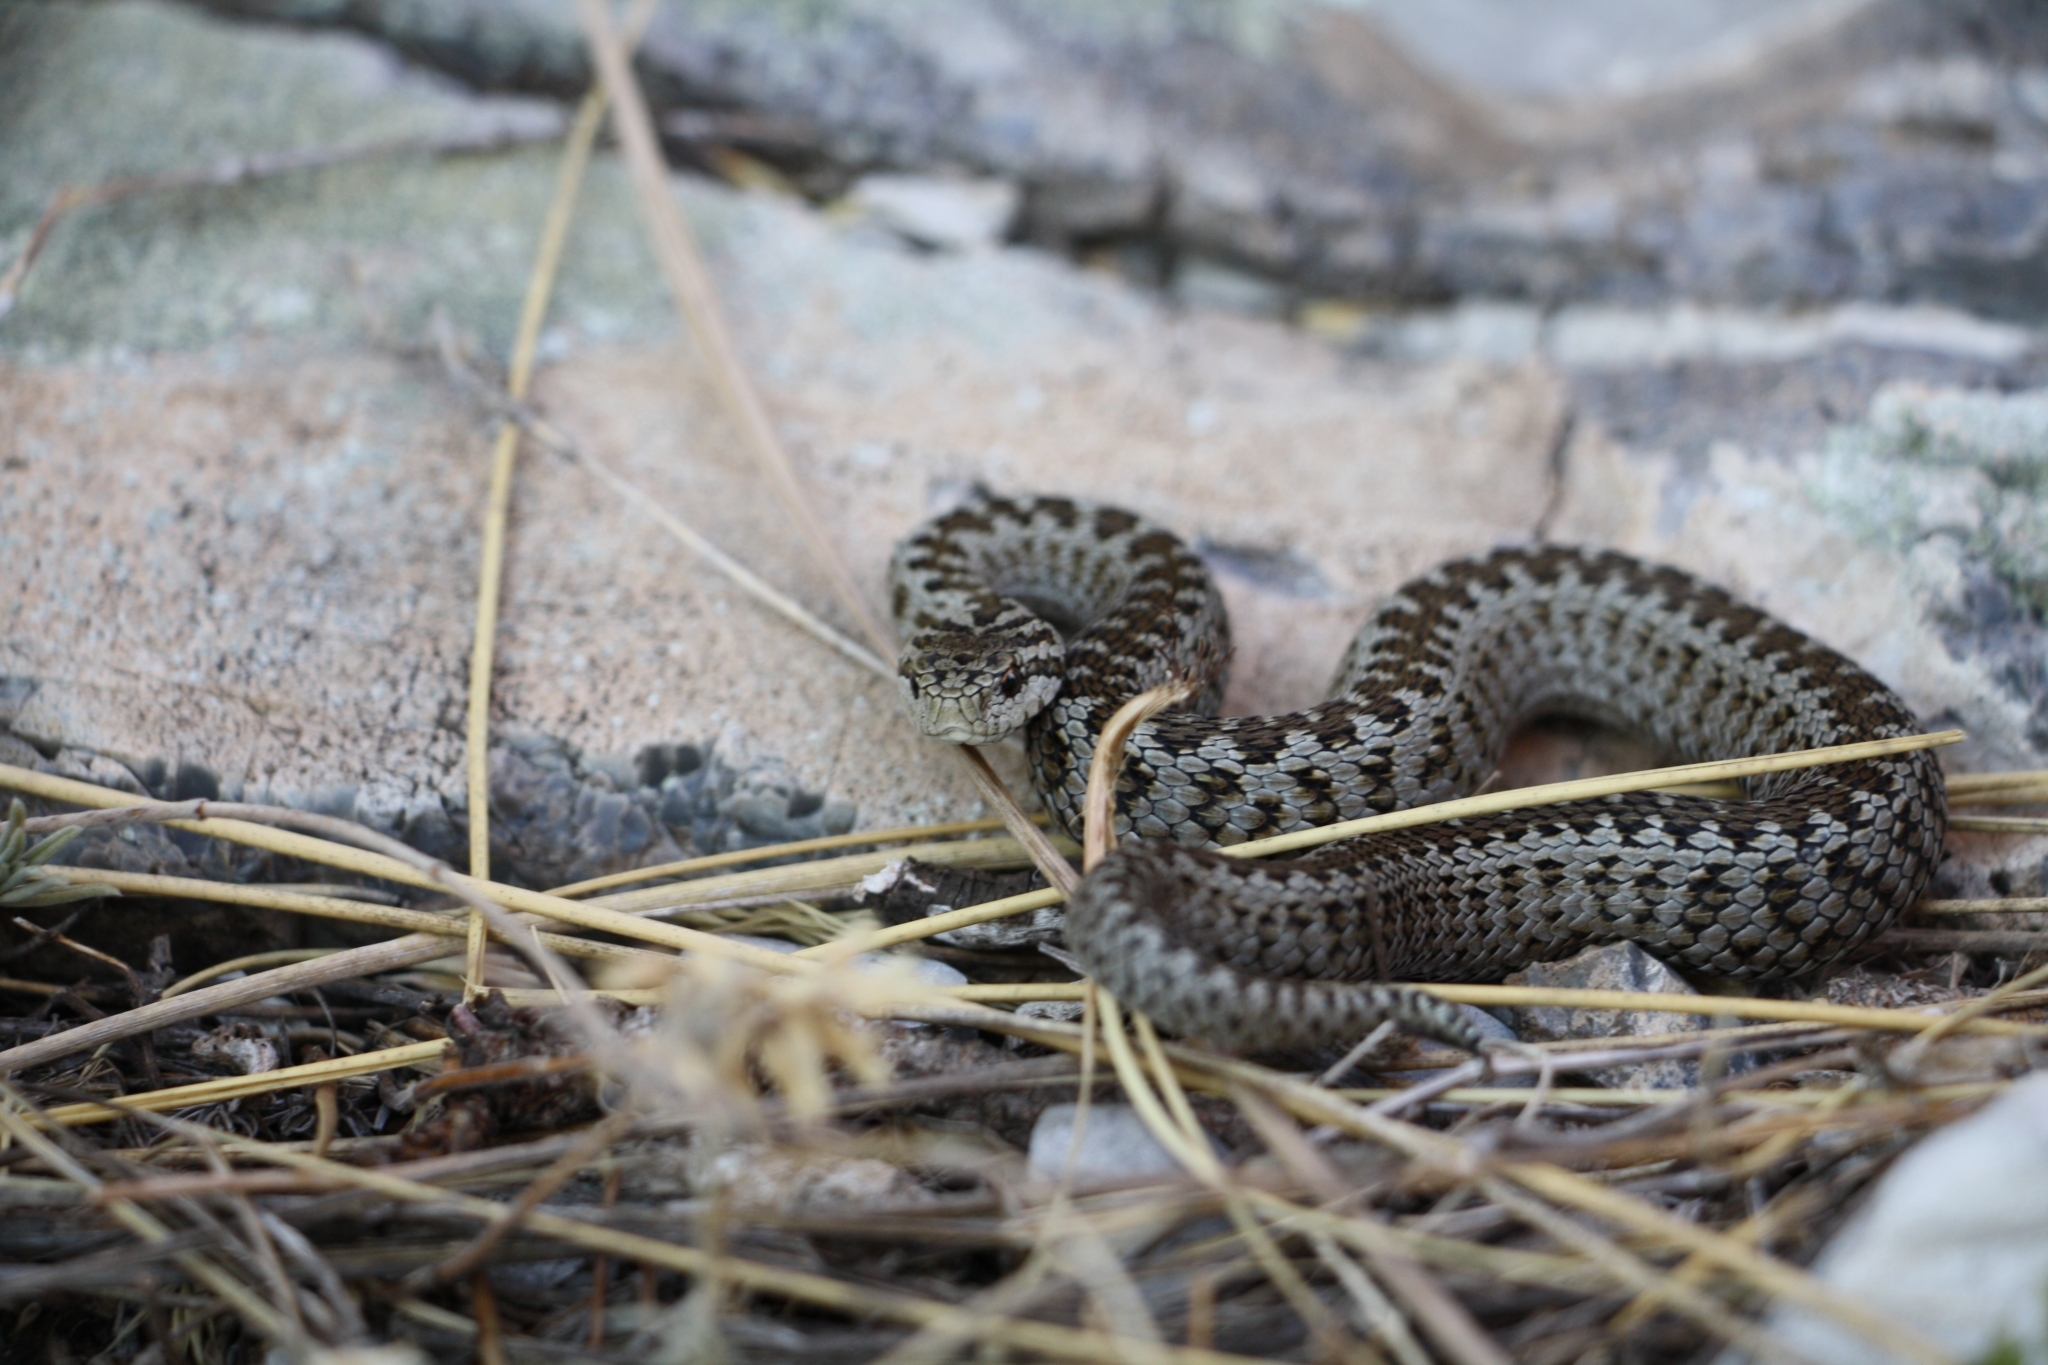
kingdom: Animalia
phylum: Chordata
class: Squamata
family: Viperidae
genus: Vipera
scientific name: Vipera ursinii
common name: Meadow viper
